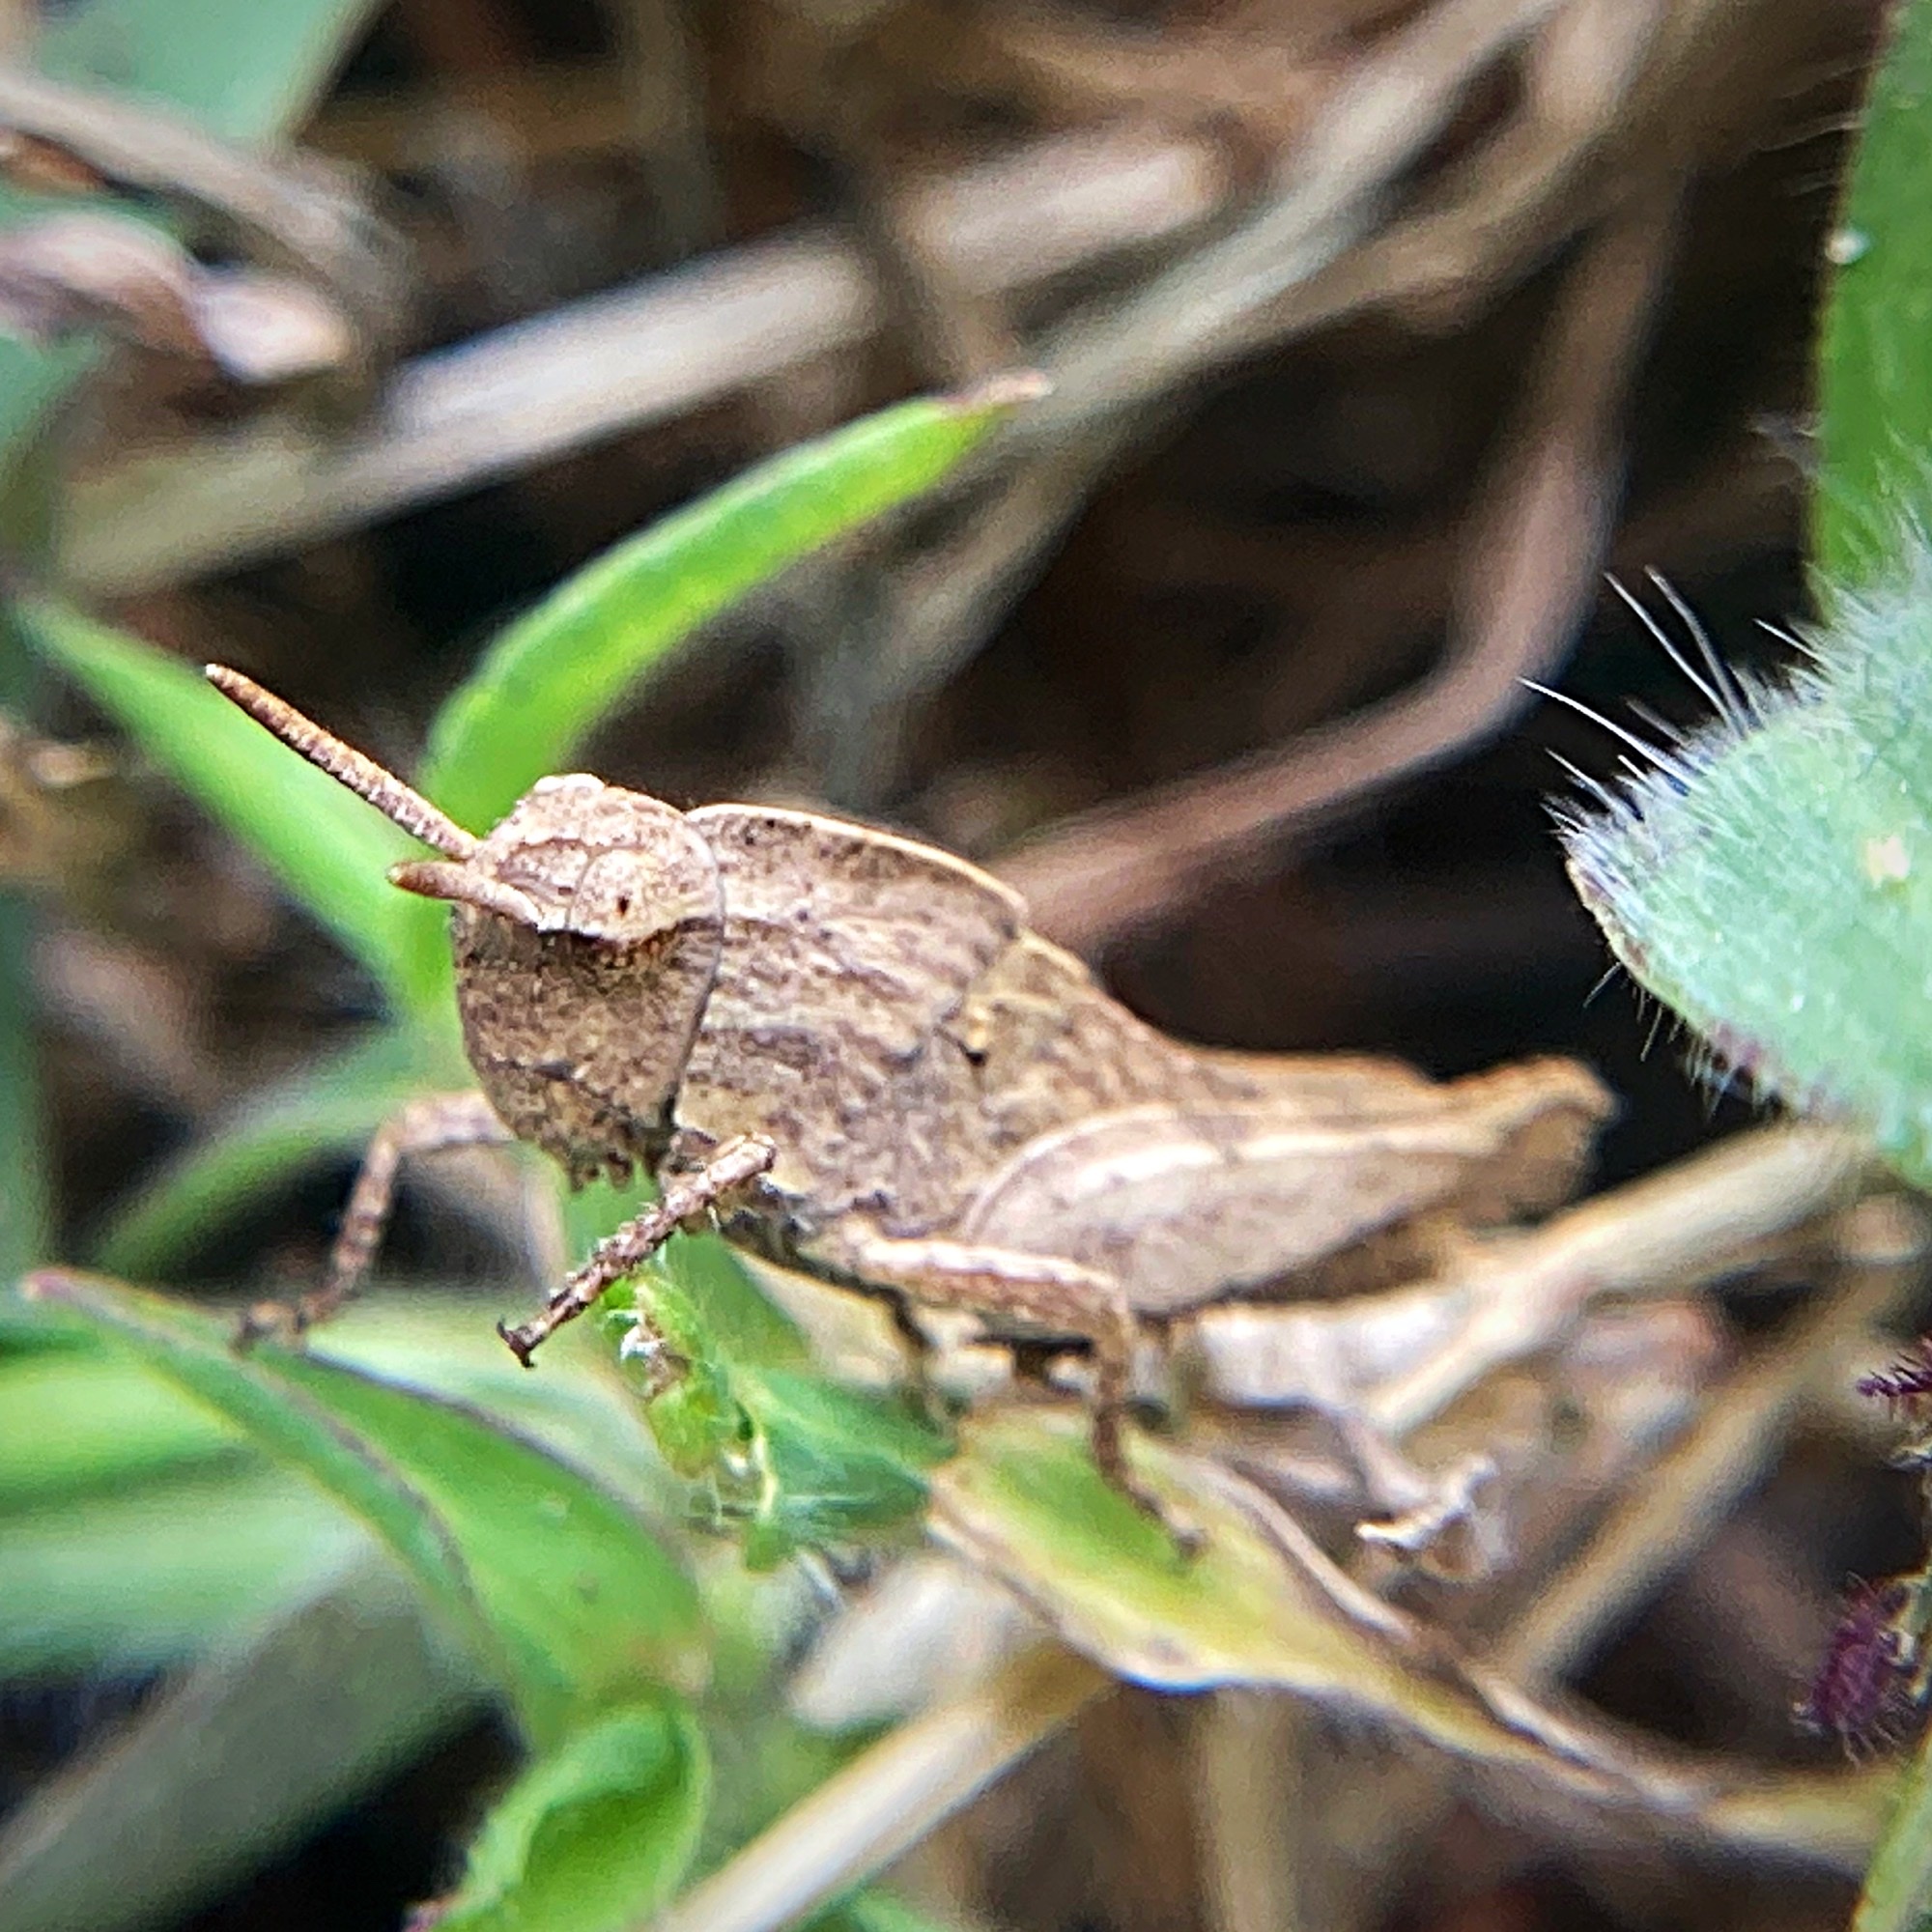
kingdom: Animalia
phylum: Arthropoda
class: Insecta
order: Orthoptera
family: Acrididae
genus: Chortophaga
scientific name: Chortophaga viridifasciata
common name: Green-striped grasshopper
